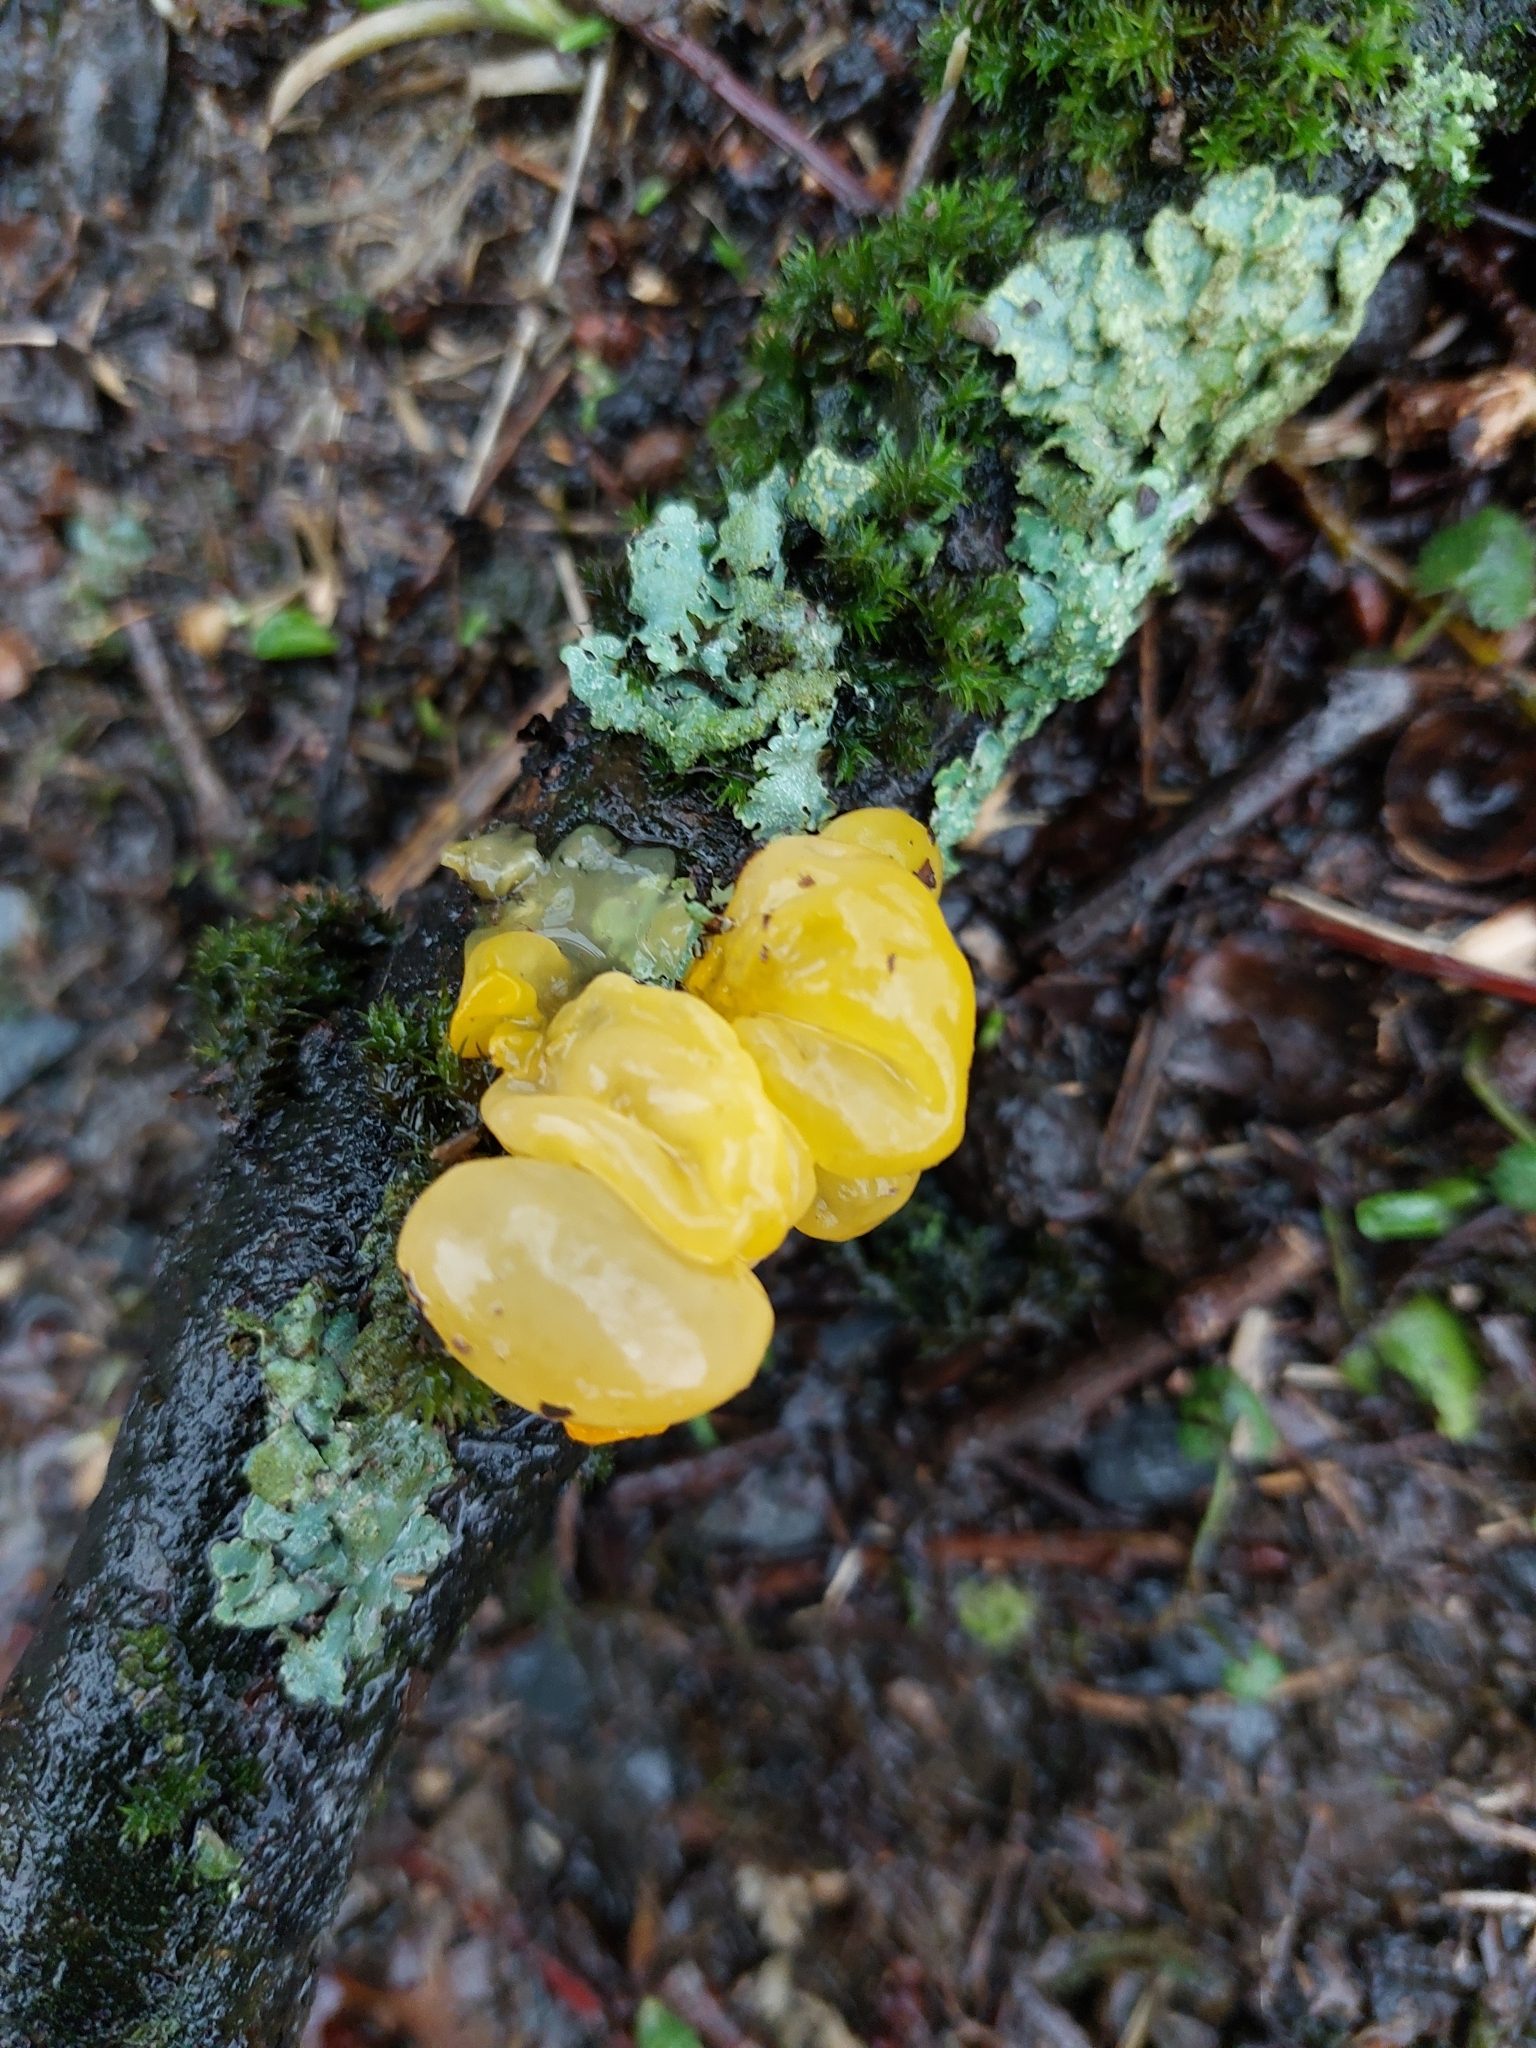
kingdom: Fungi
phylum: Basidiomycota
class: Tremellomycetes
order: Tremellales
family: Tremellaceae
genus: Tremella
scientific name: Tremella mesenterica
